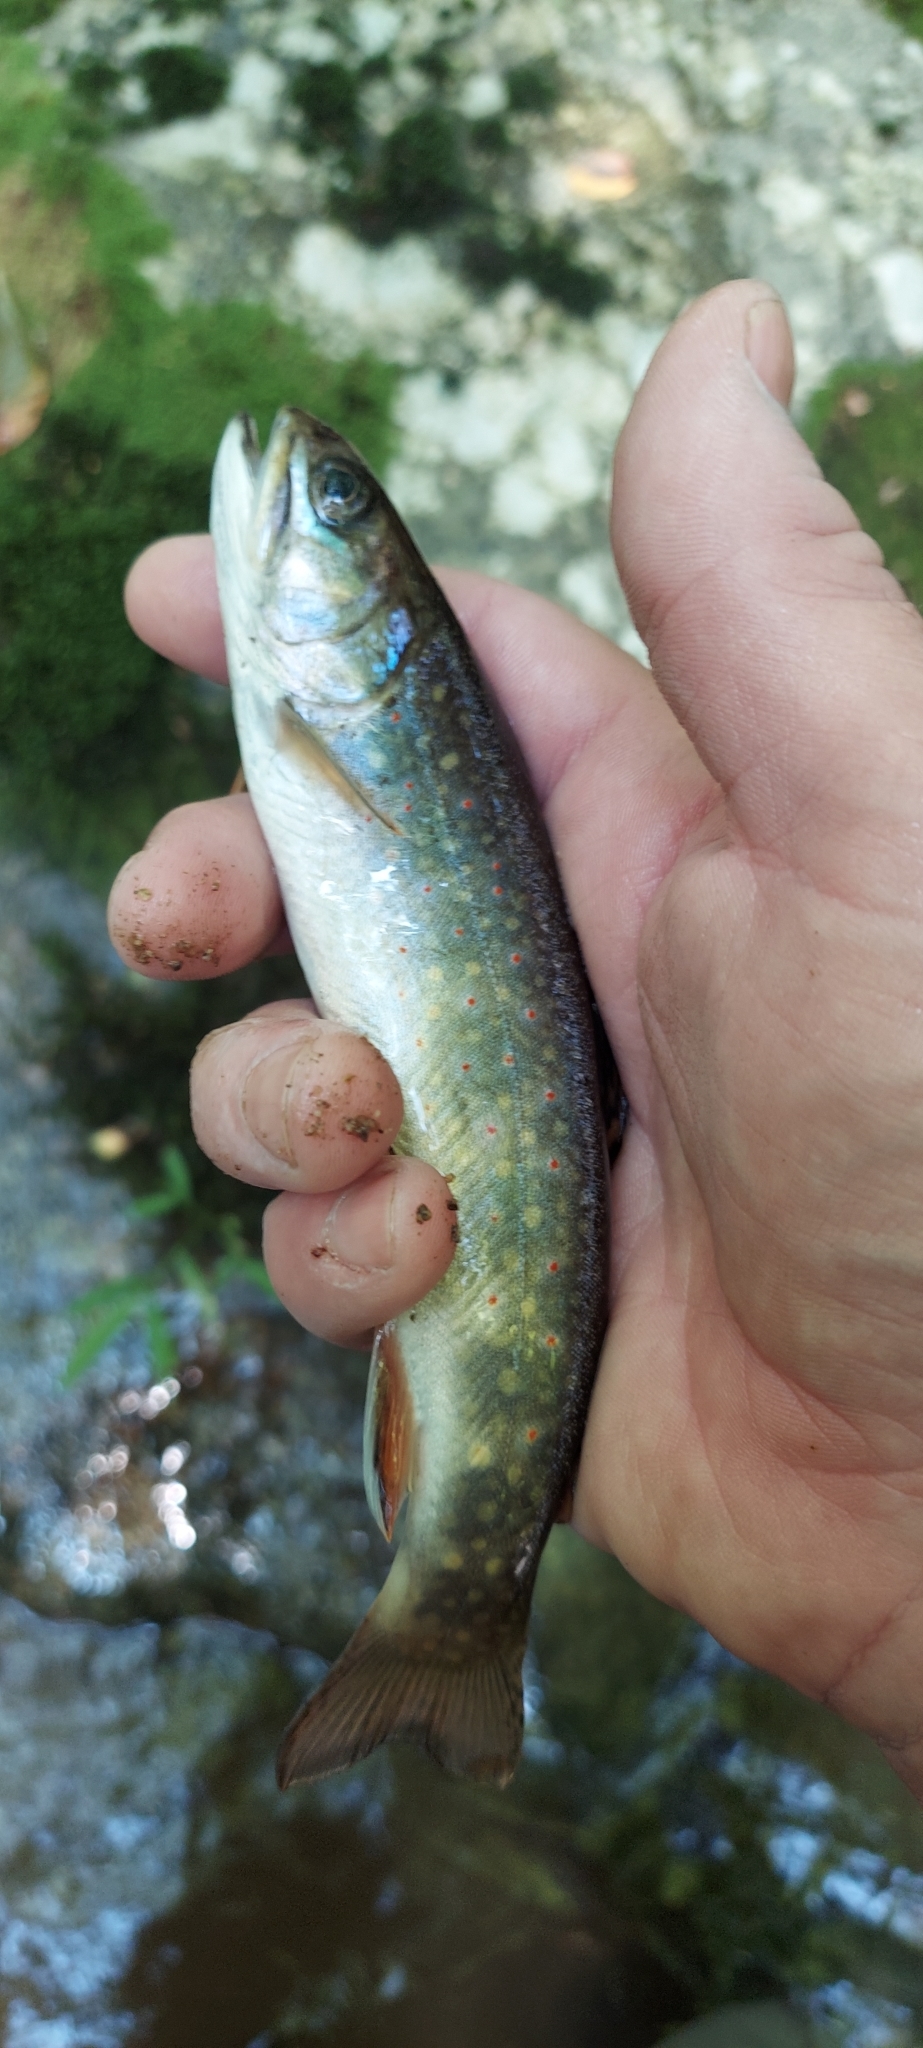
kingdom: Animalia
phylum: Chordata
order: Salmoniformes
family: Salmonidae
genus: Salvelinus
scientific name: Salvelinus fontinalis
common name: Brook trout
